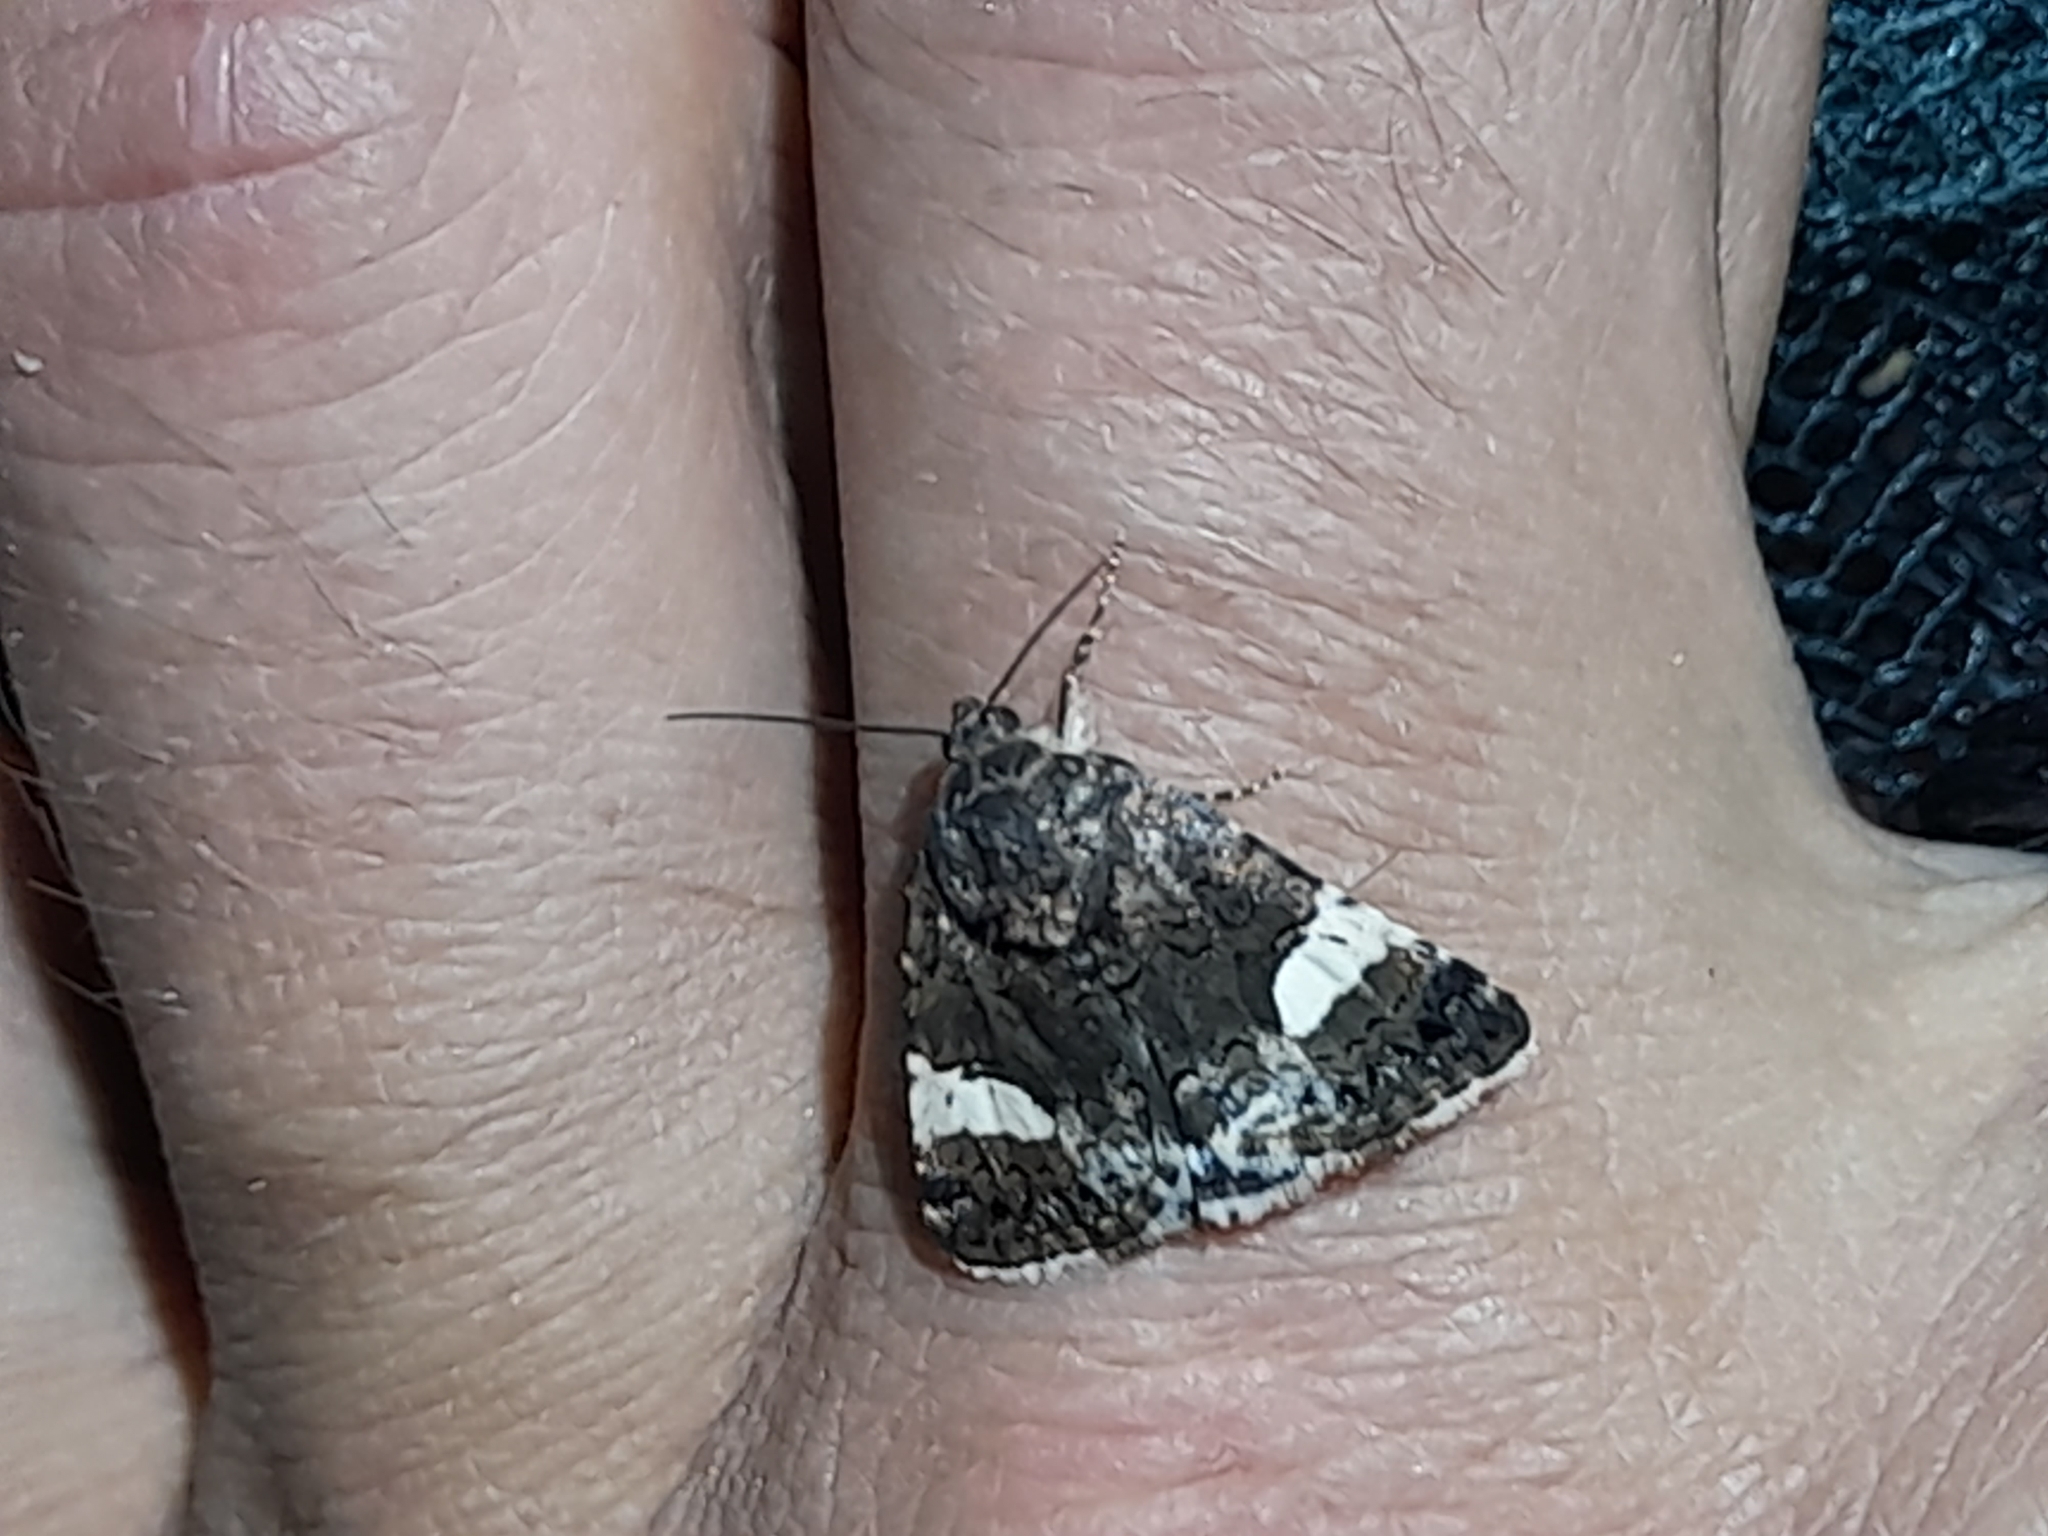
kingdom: Animalia
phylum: Arthropoda
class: Insecta
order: Lepidoptera
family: Erebidae
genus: Tyta
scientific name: Tyta luctuosa
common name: Four-spotted
